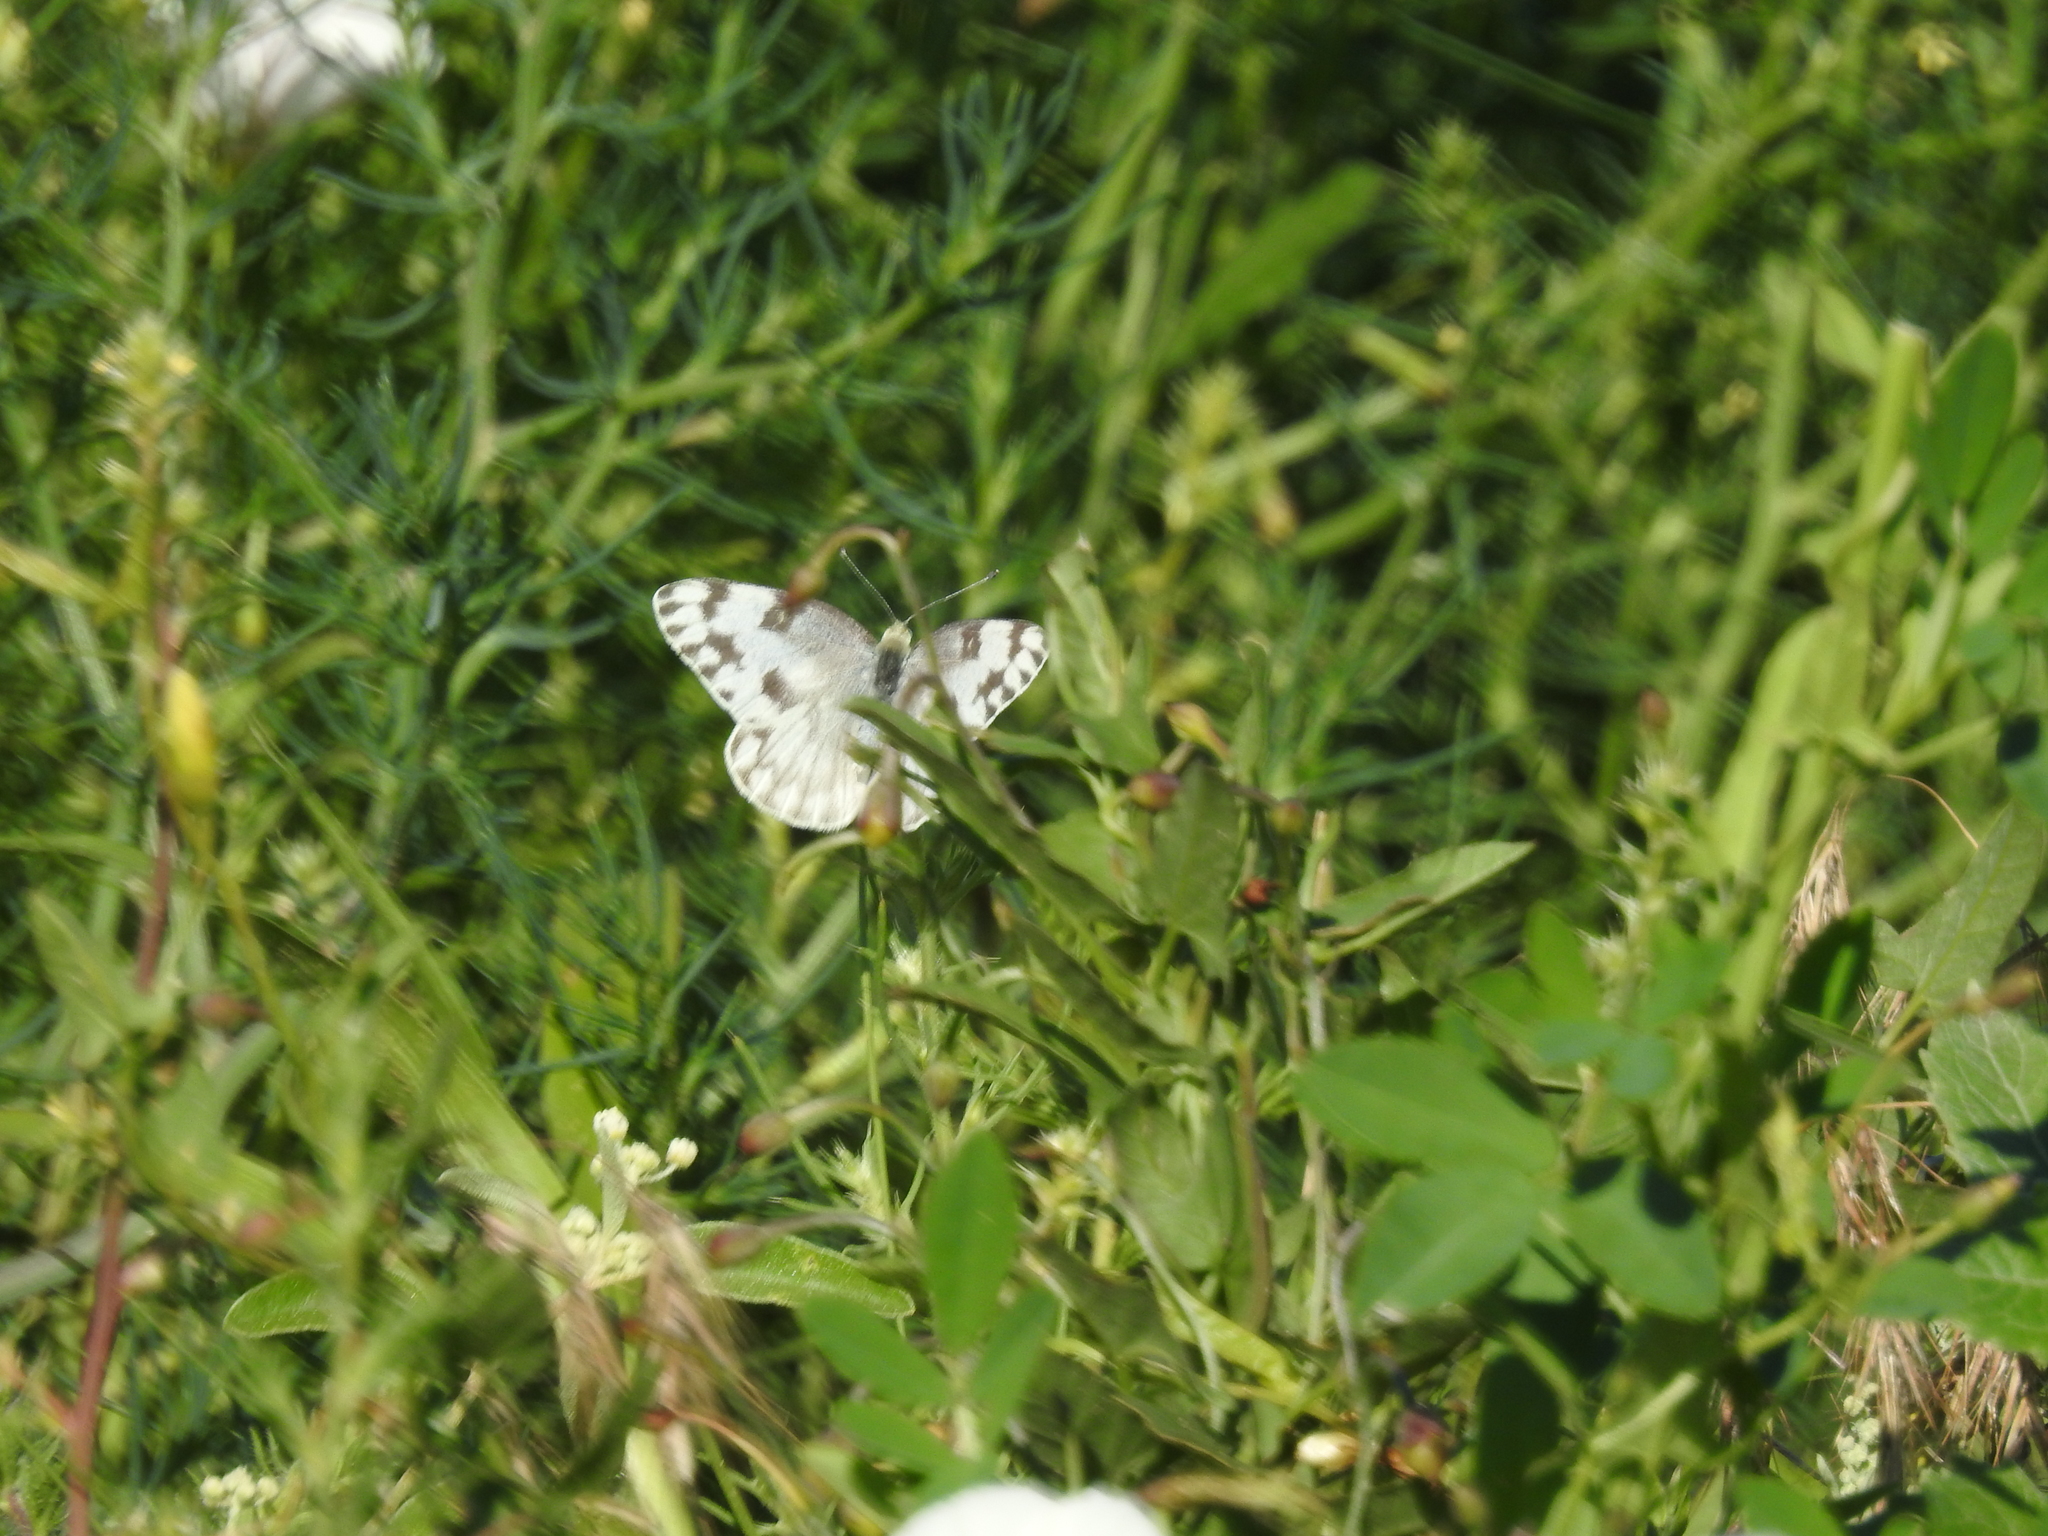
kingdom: Animalia
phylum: Arthropoda
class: Insecta
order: Lepidoptera
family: Pieridae
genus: Pontia
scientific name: Pontia protodice
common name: Checkered white
